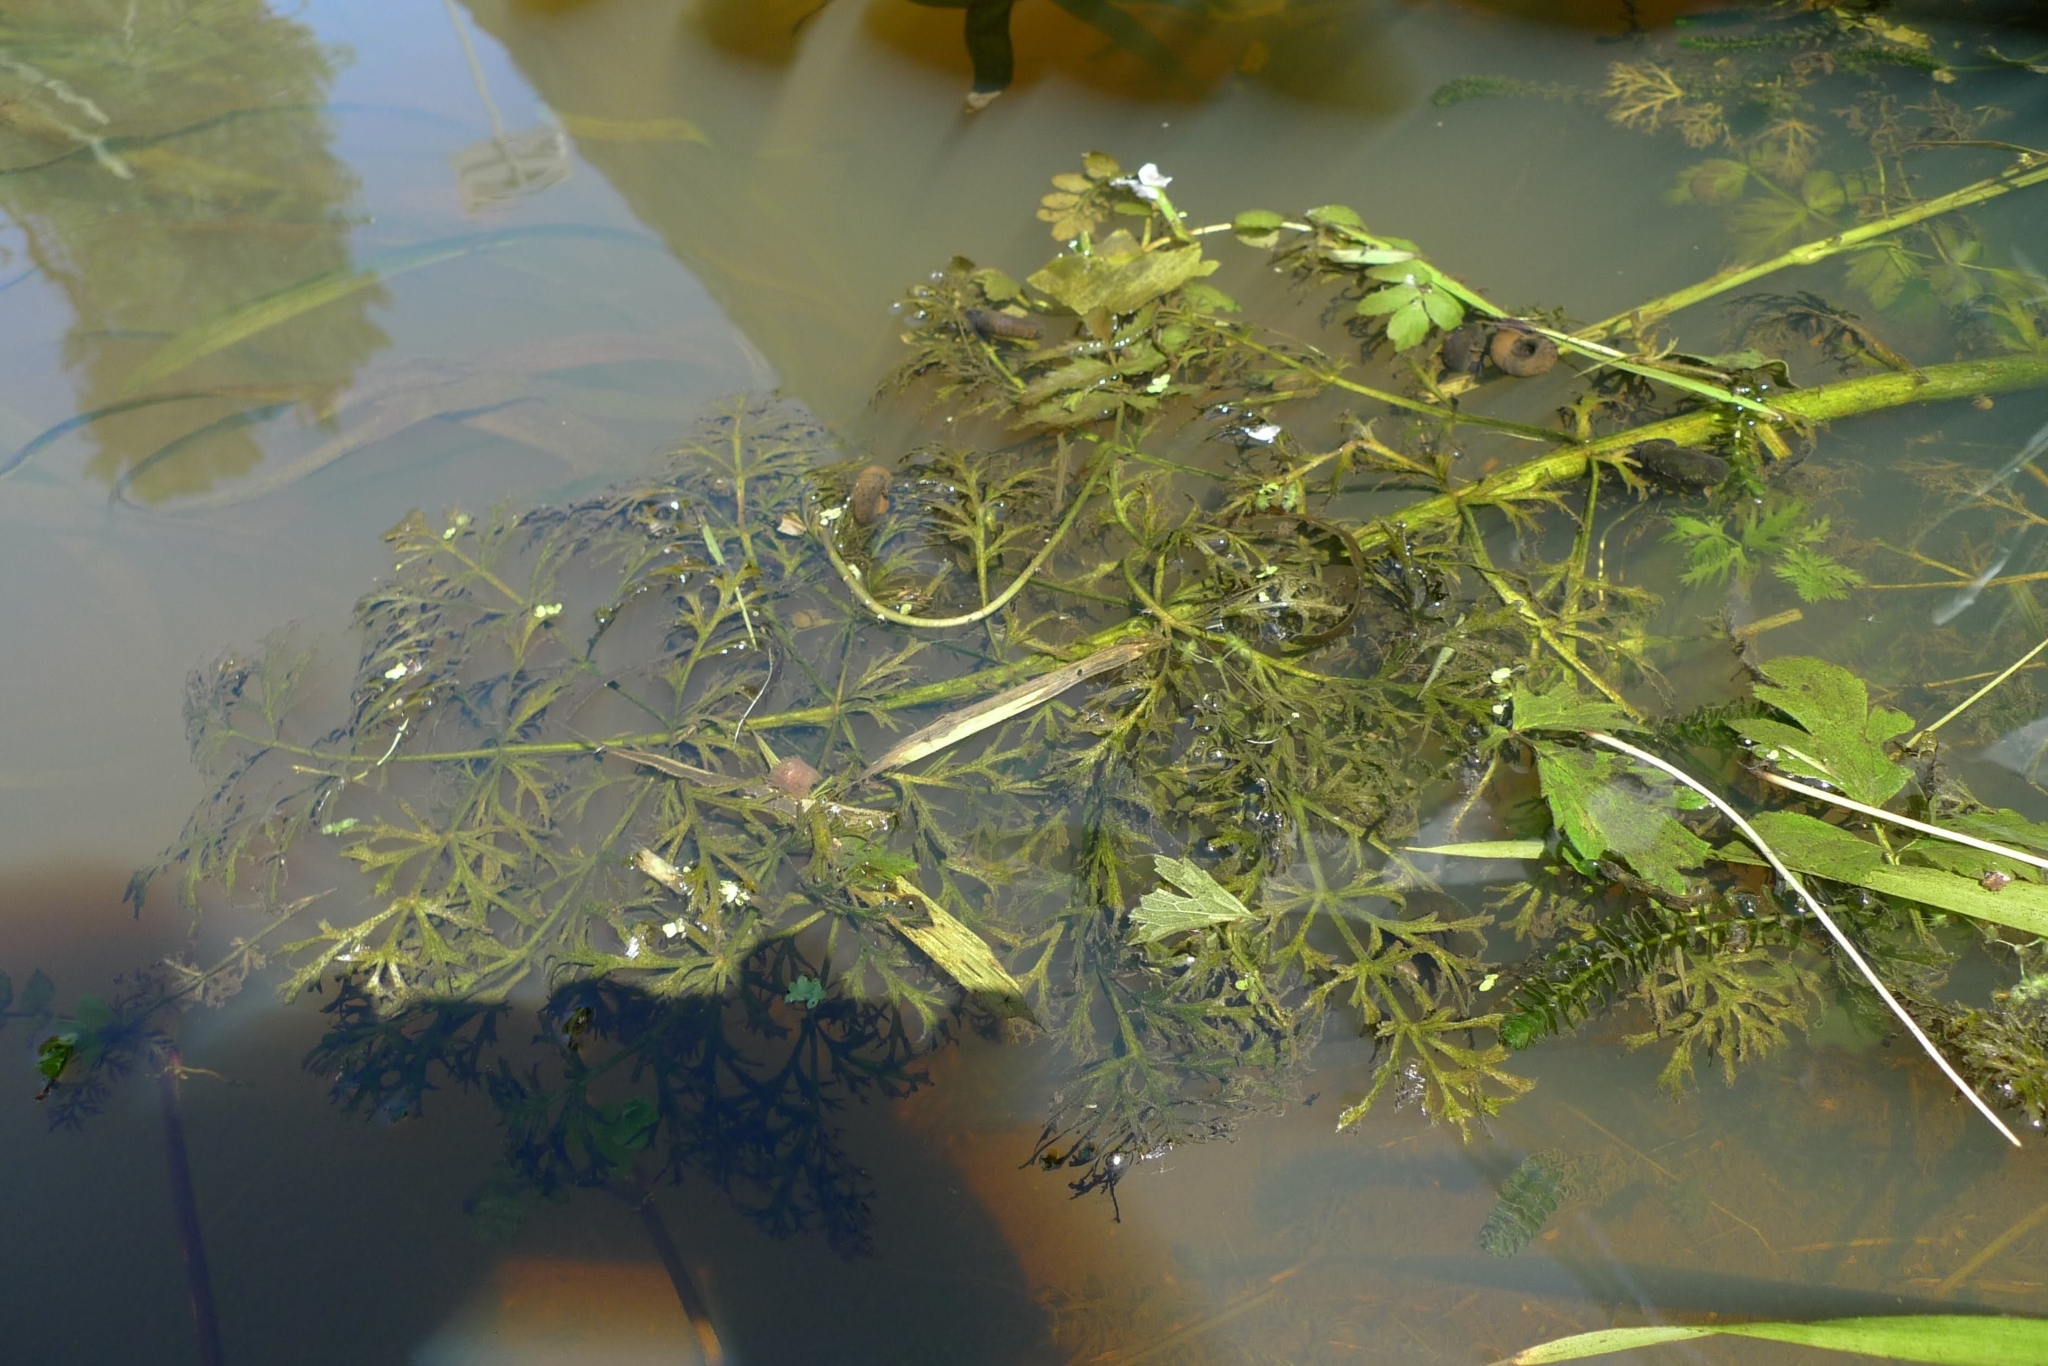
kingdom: Plantae
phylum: Tracheophyta
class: Magnoliopsida
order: Apiales
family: Apiaceae
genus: Cicuta
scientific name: Cicuta virosa
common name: Cowbane
